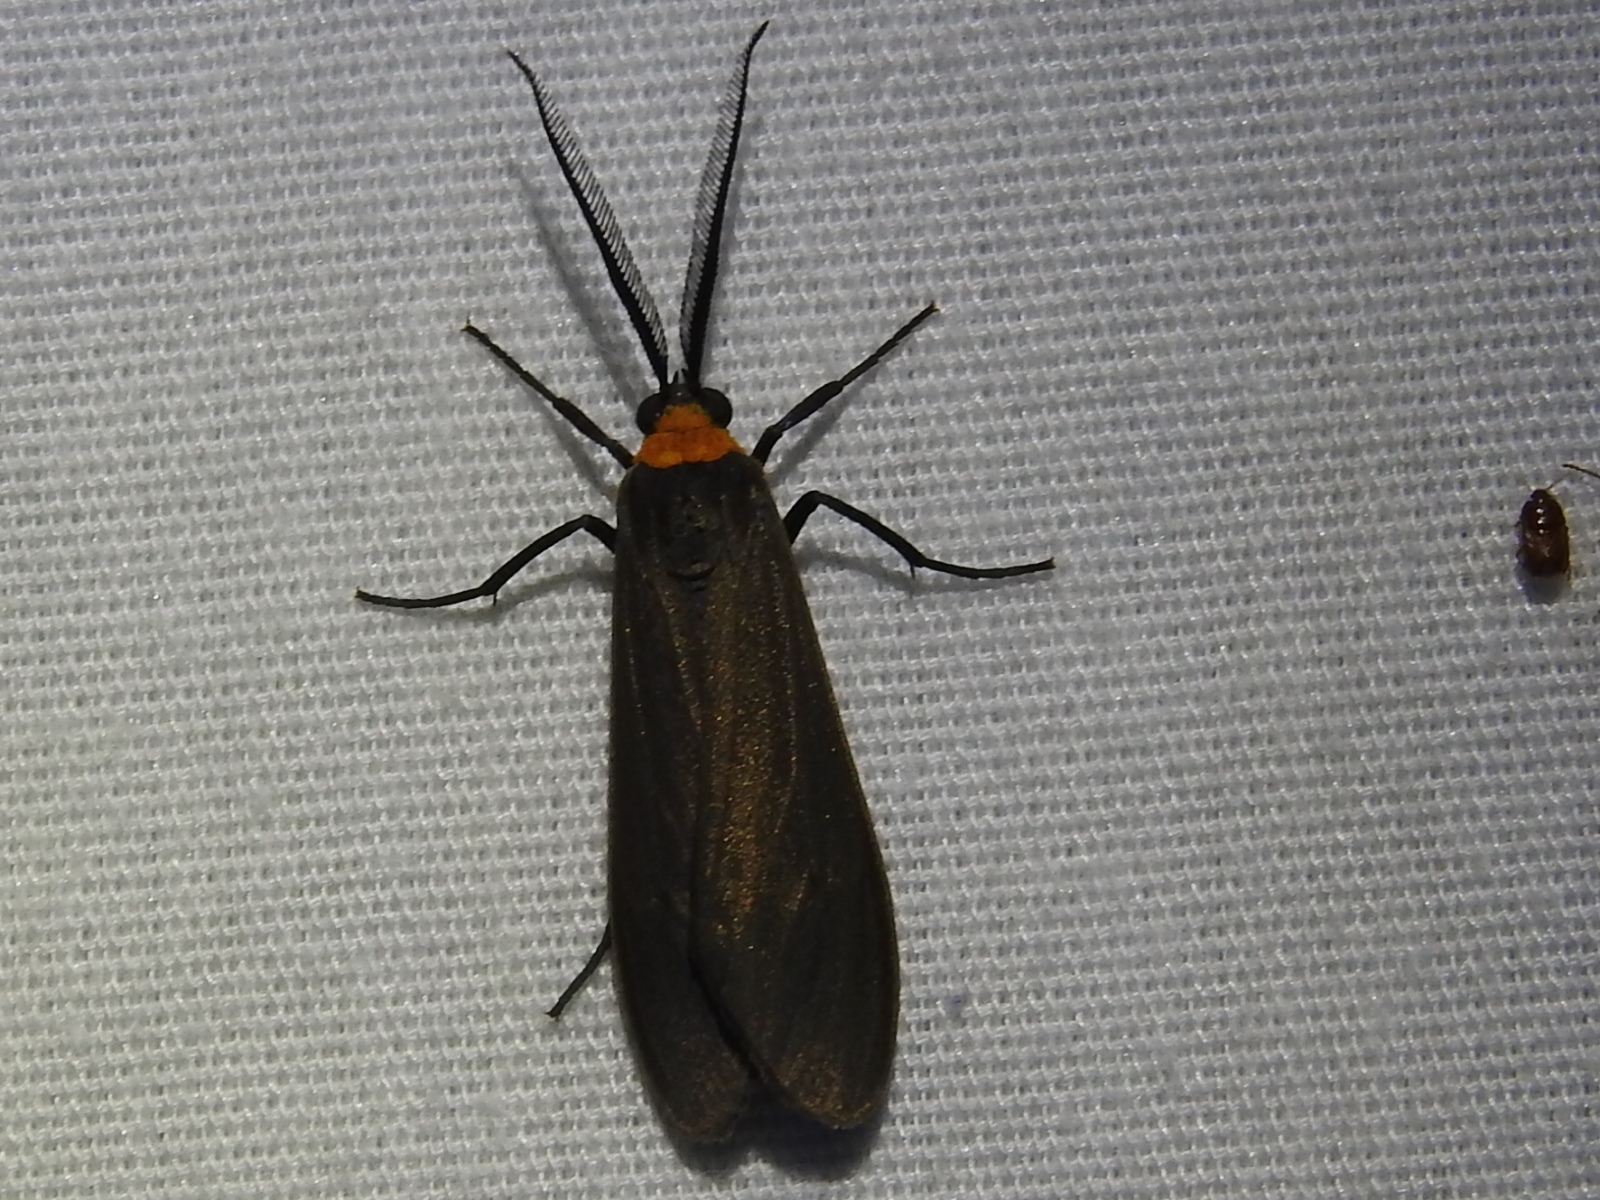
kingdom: Animalia
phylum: Arthropoda
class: Insecta
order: Lepidoptera
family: Erebidae
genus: Cisseps
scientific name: Cisseps fulvicollis
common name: Yellow-collared scape moth
